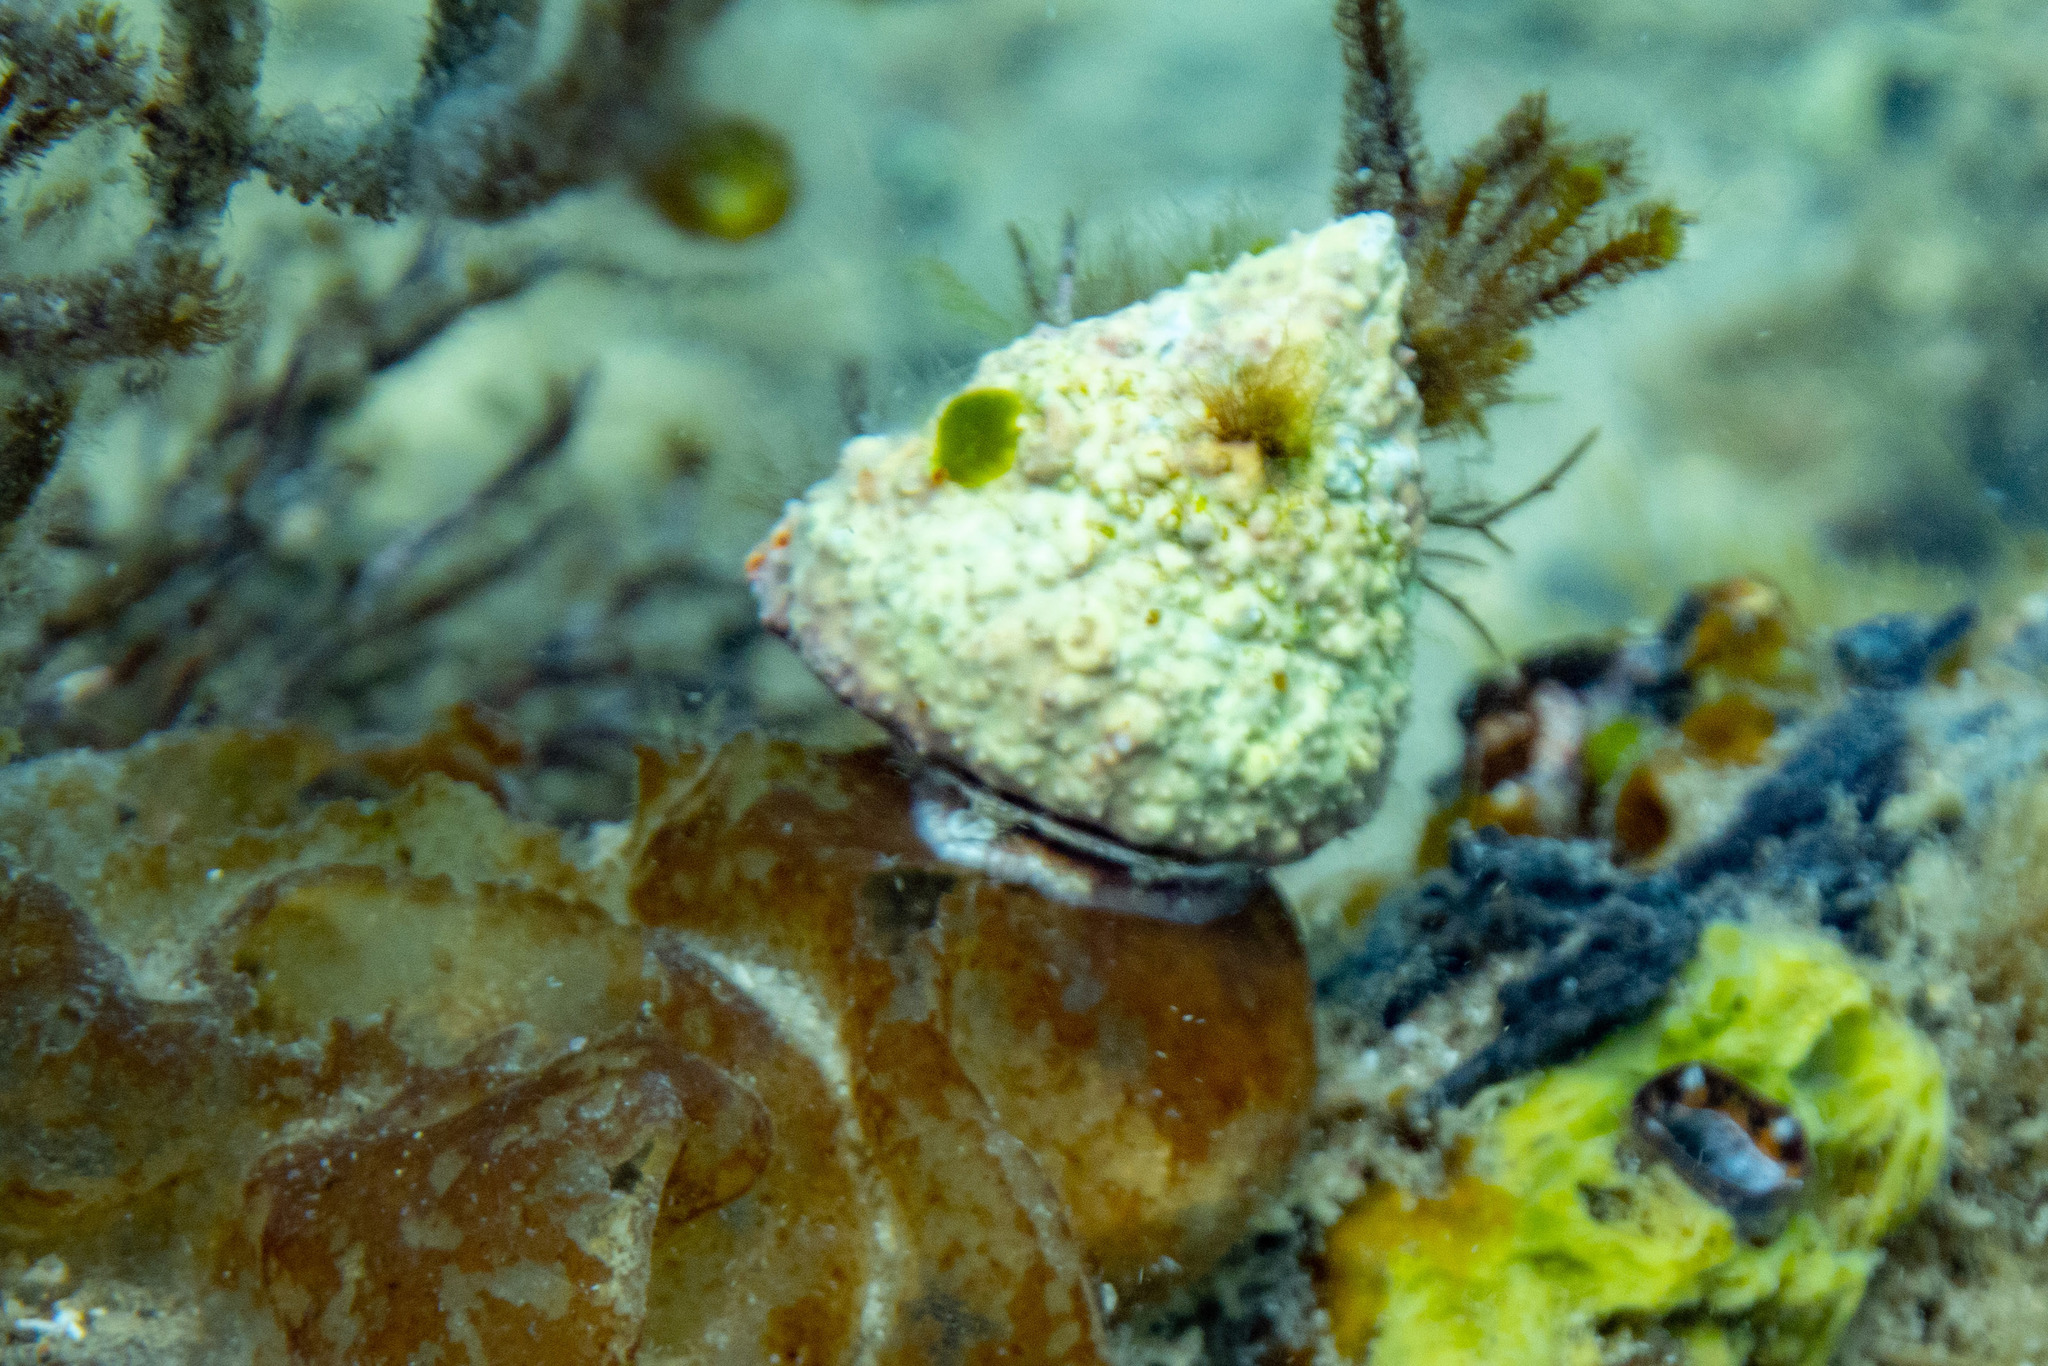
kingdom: Animalia
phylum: Mollusca
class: Gastropoda
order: Trochida
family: Trochidae
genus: Coelotrochus
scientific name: Coelotrochus viridis
